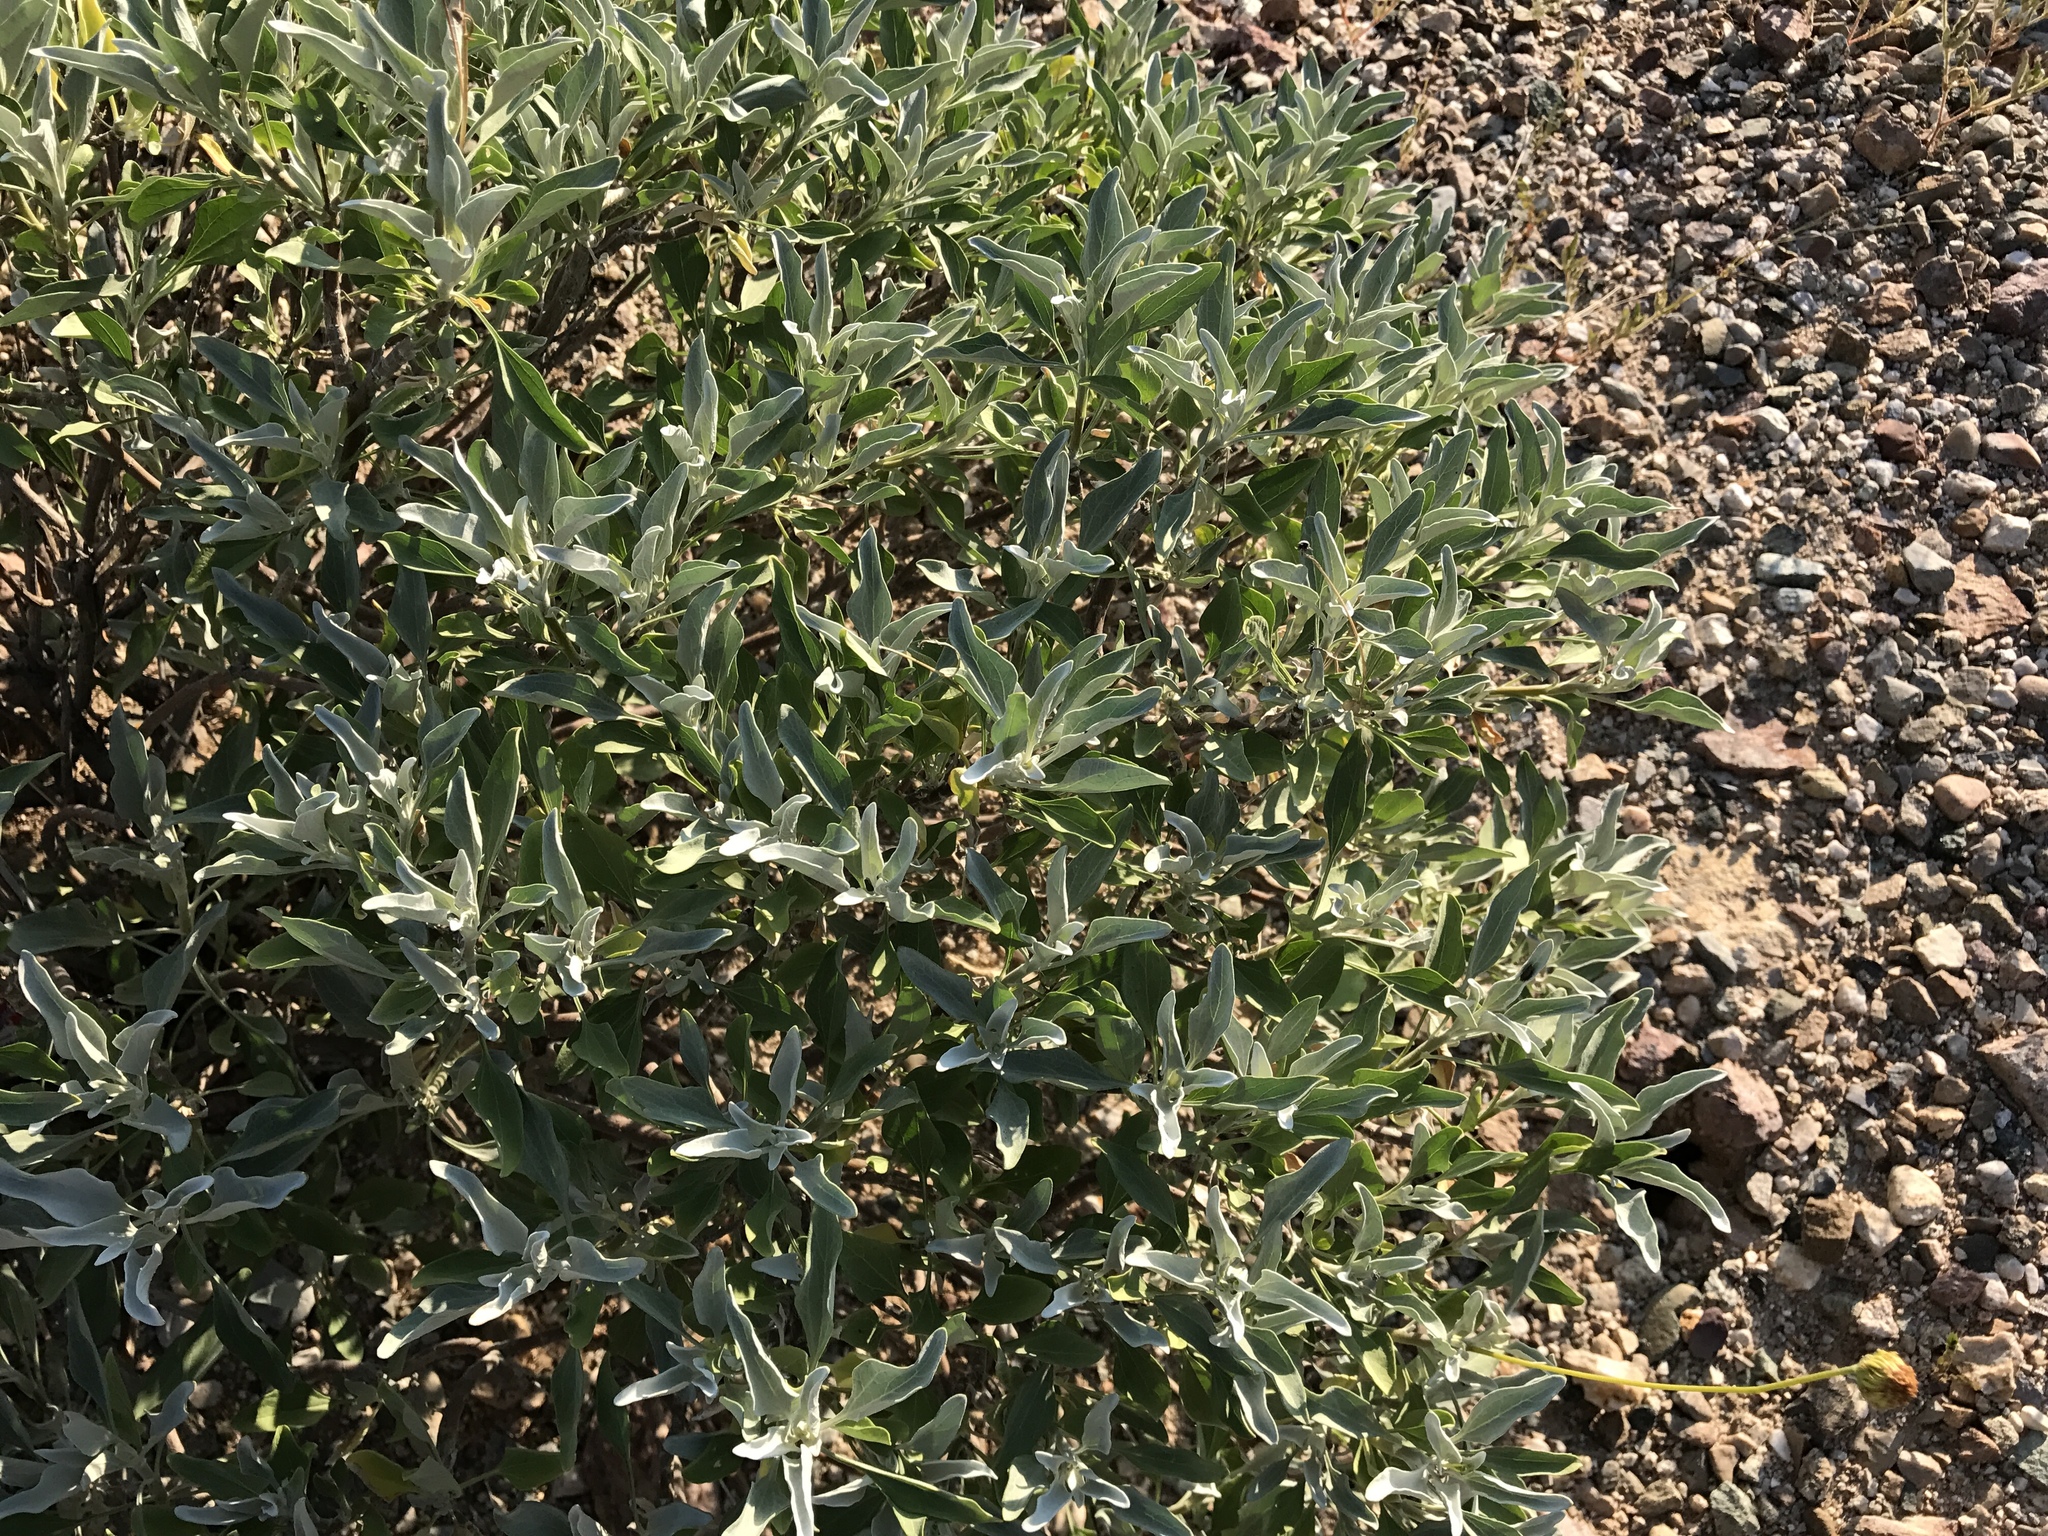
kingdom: Plantae
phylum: Tracheophyta
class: Magnoliopsida
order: Asterales
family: Asteraceae
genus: Encelia
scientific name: Encelia farinosa
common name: Brittlebush
